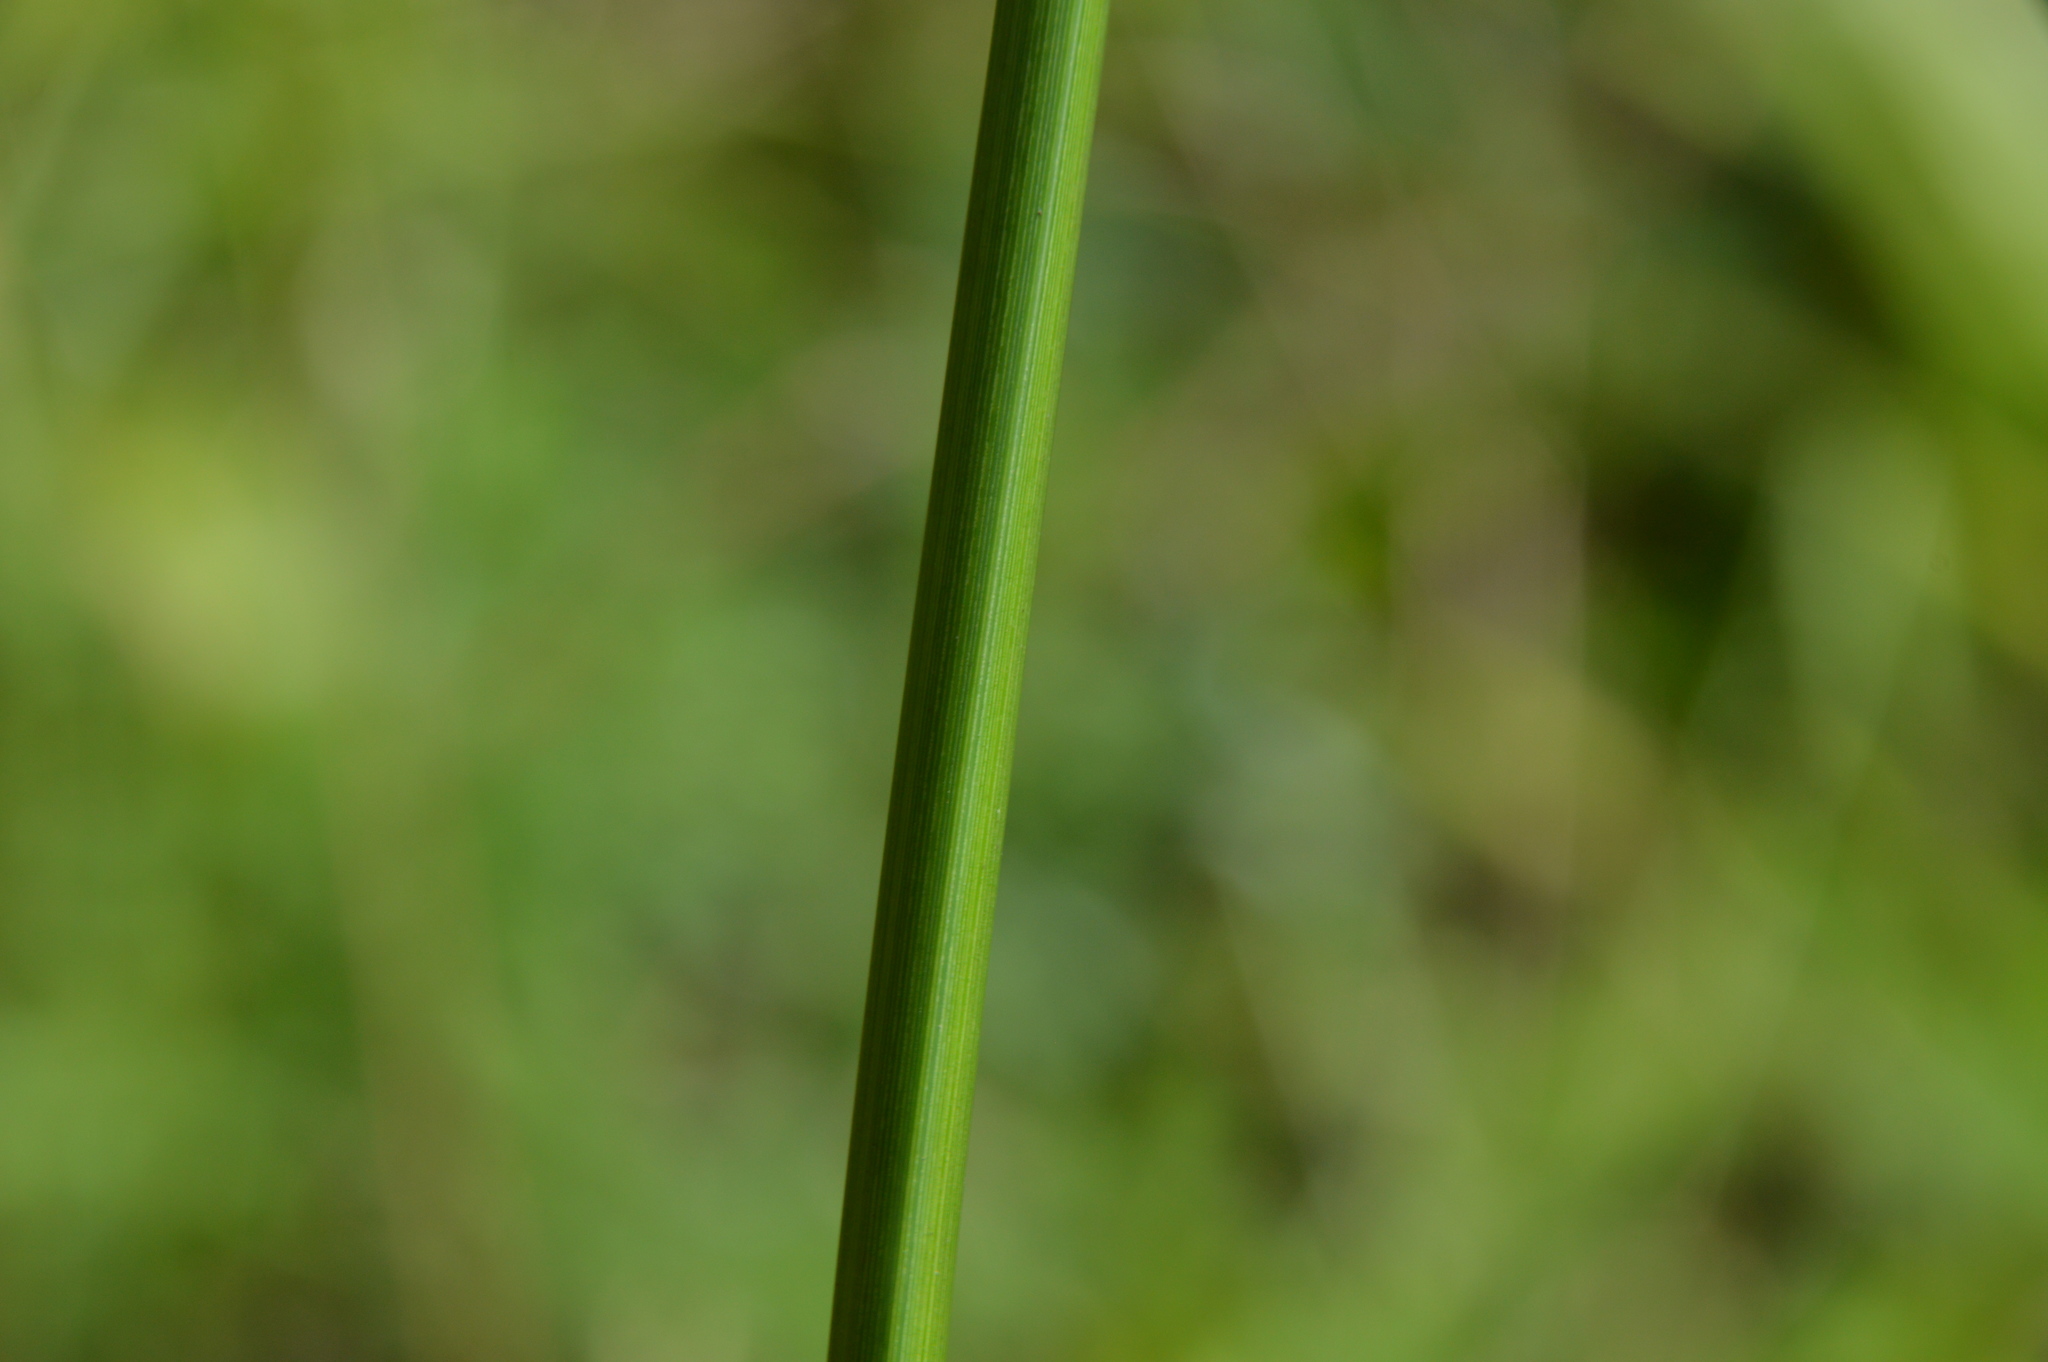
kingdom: Plantae
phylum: Tracheophyta
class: Liliopsida
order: Poales
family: Cyperaceae
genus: Cyperus
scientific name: Cyperus entrerianus
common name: Woodrush flatsedge
